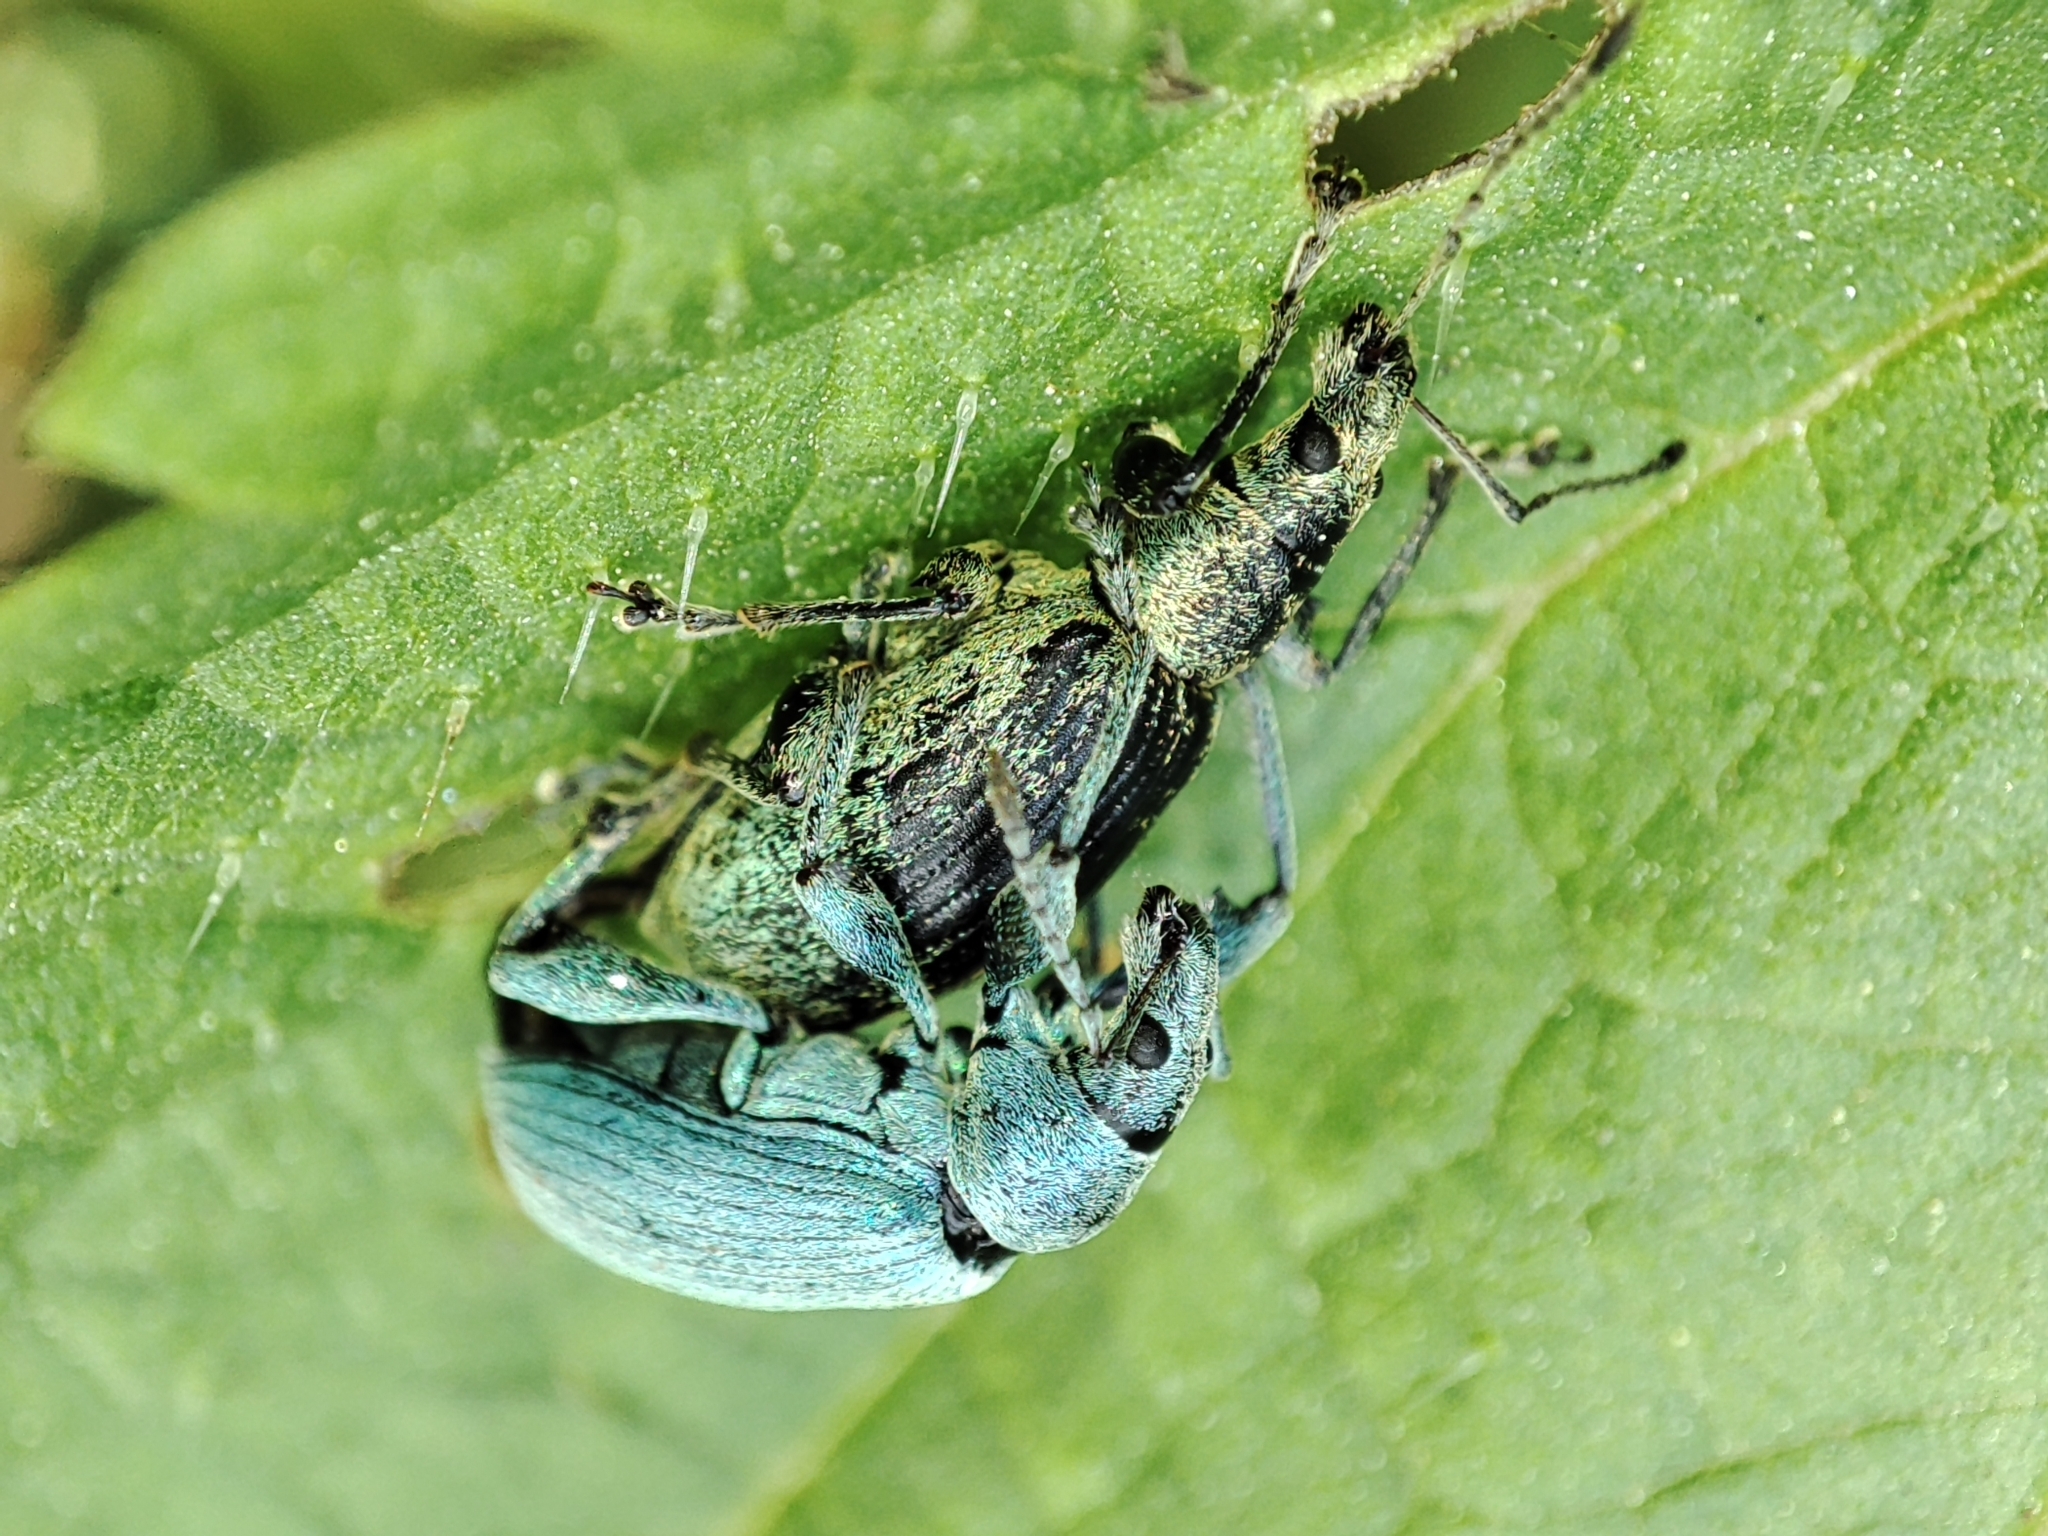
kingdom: Animalia
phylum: Arthropoda
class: Insecta
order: Coleoptera
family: Curculionidae
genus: Phyllobius
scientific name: Phyllobius pomaceus
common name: Green nettle weevil
